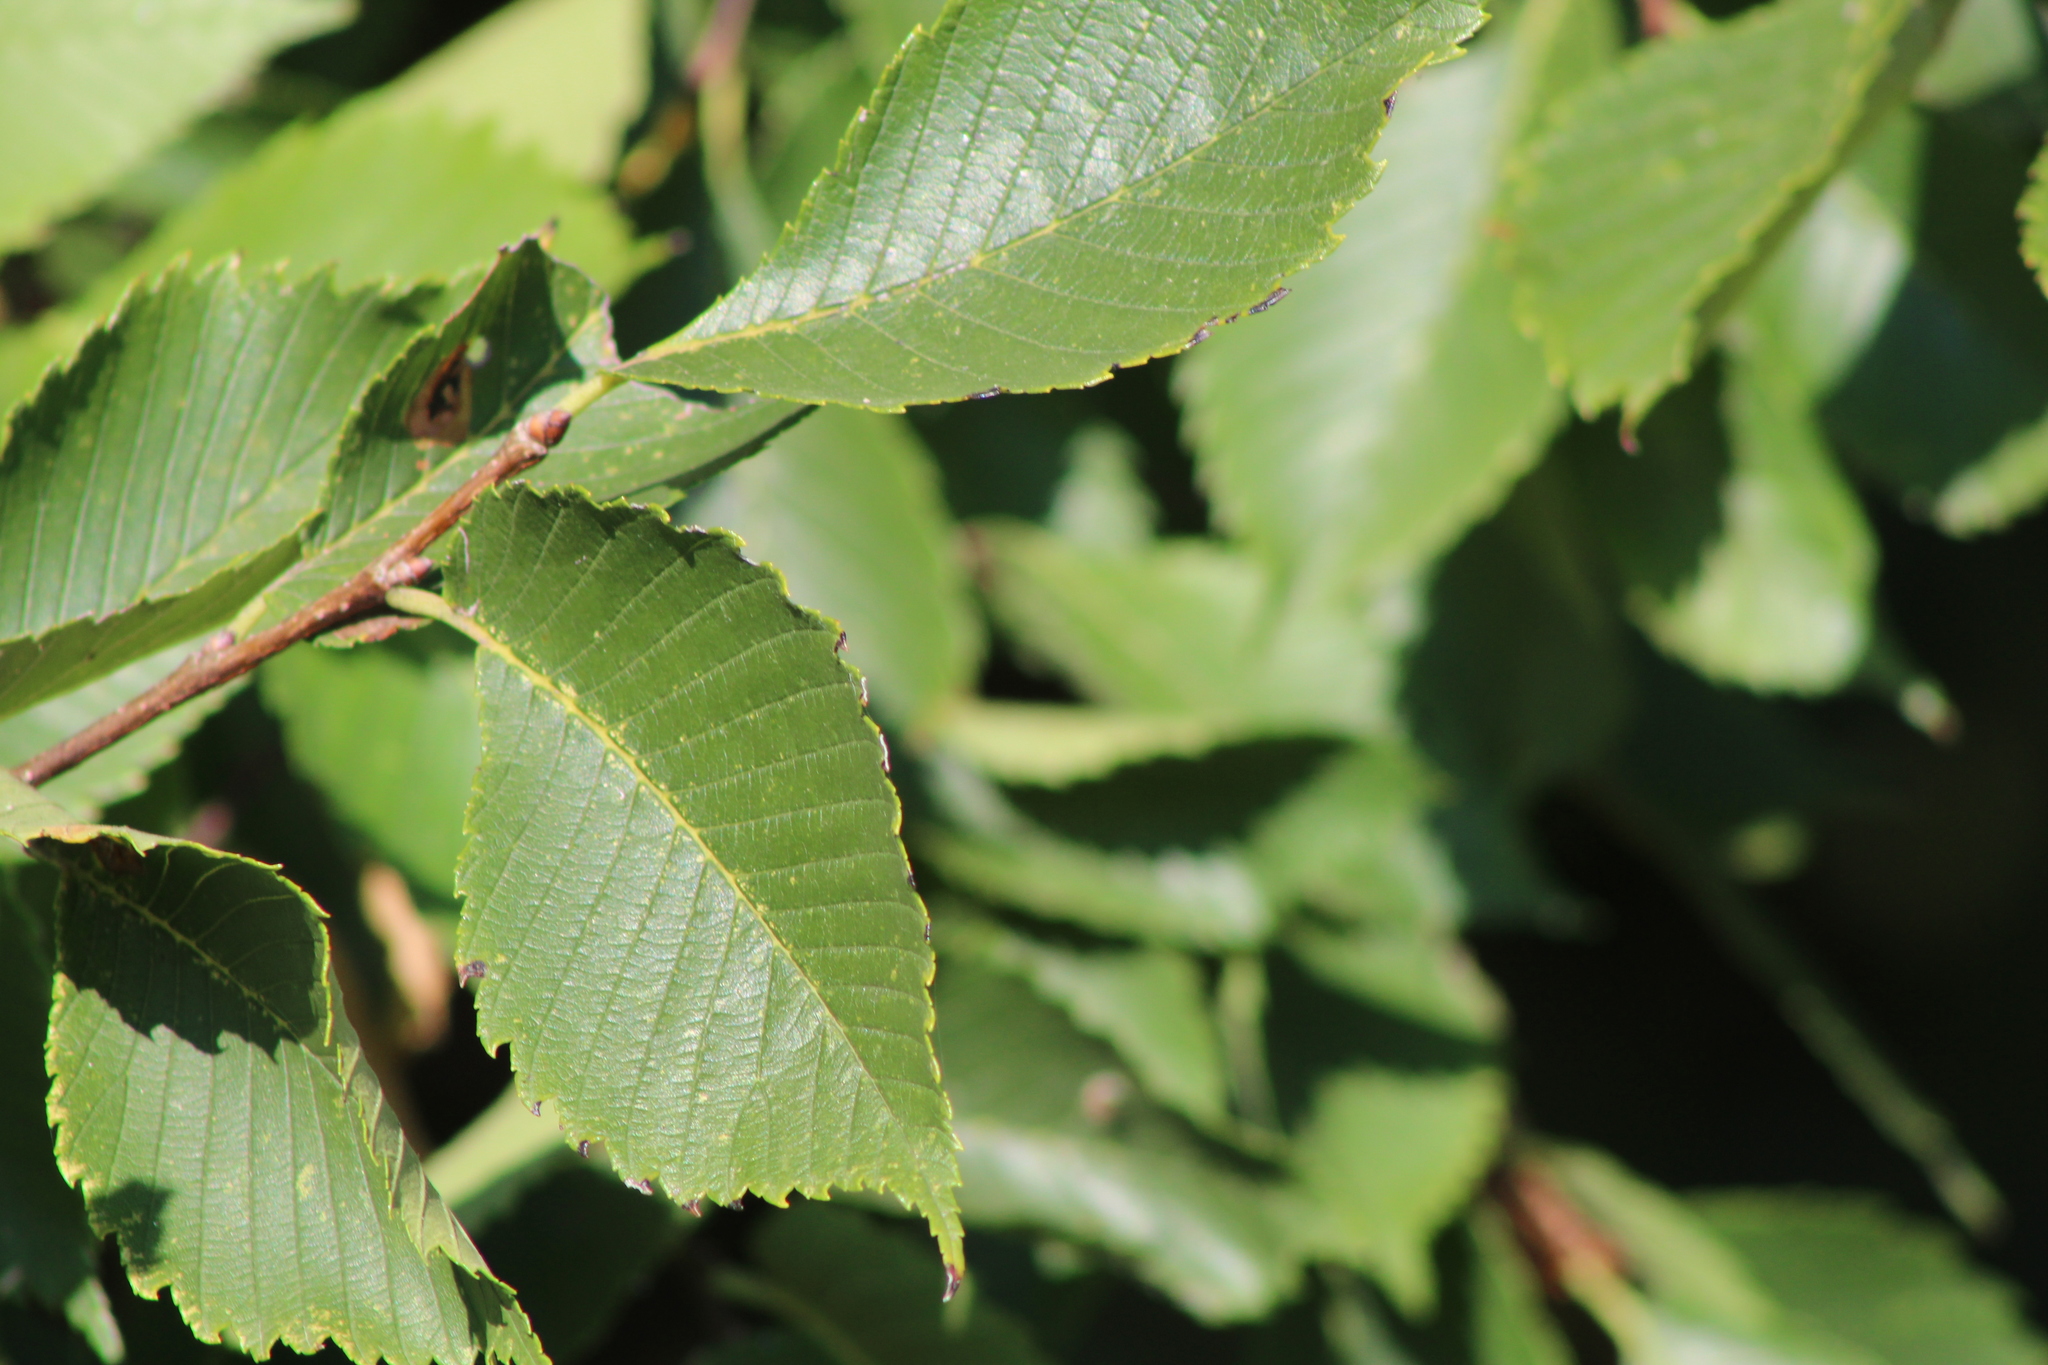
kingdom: Plantae
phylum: Tracheophyta
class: Magnoliopsida
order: Rosales
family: Ulmaceae
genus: Ulmus
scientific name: Ulmus americana
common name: American elm
